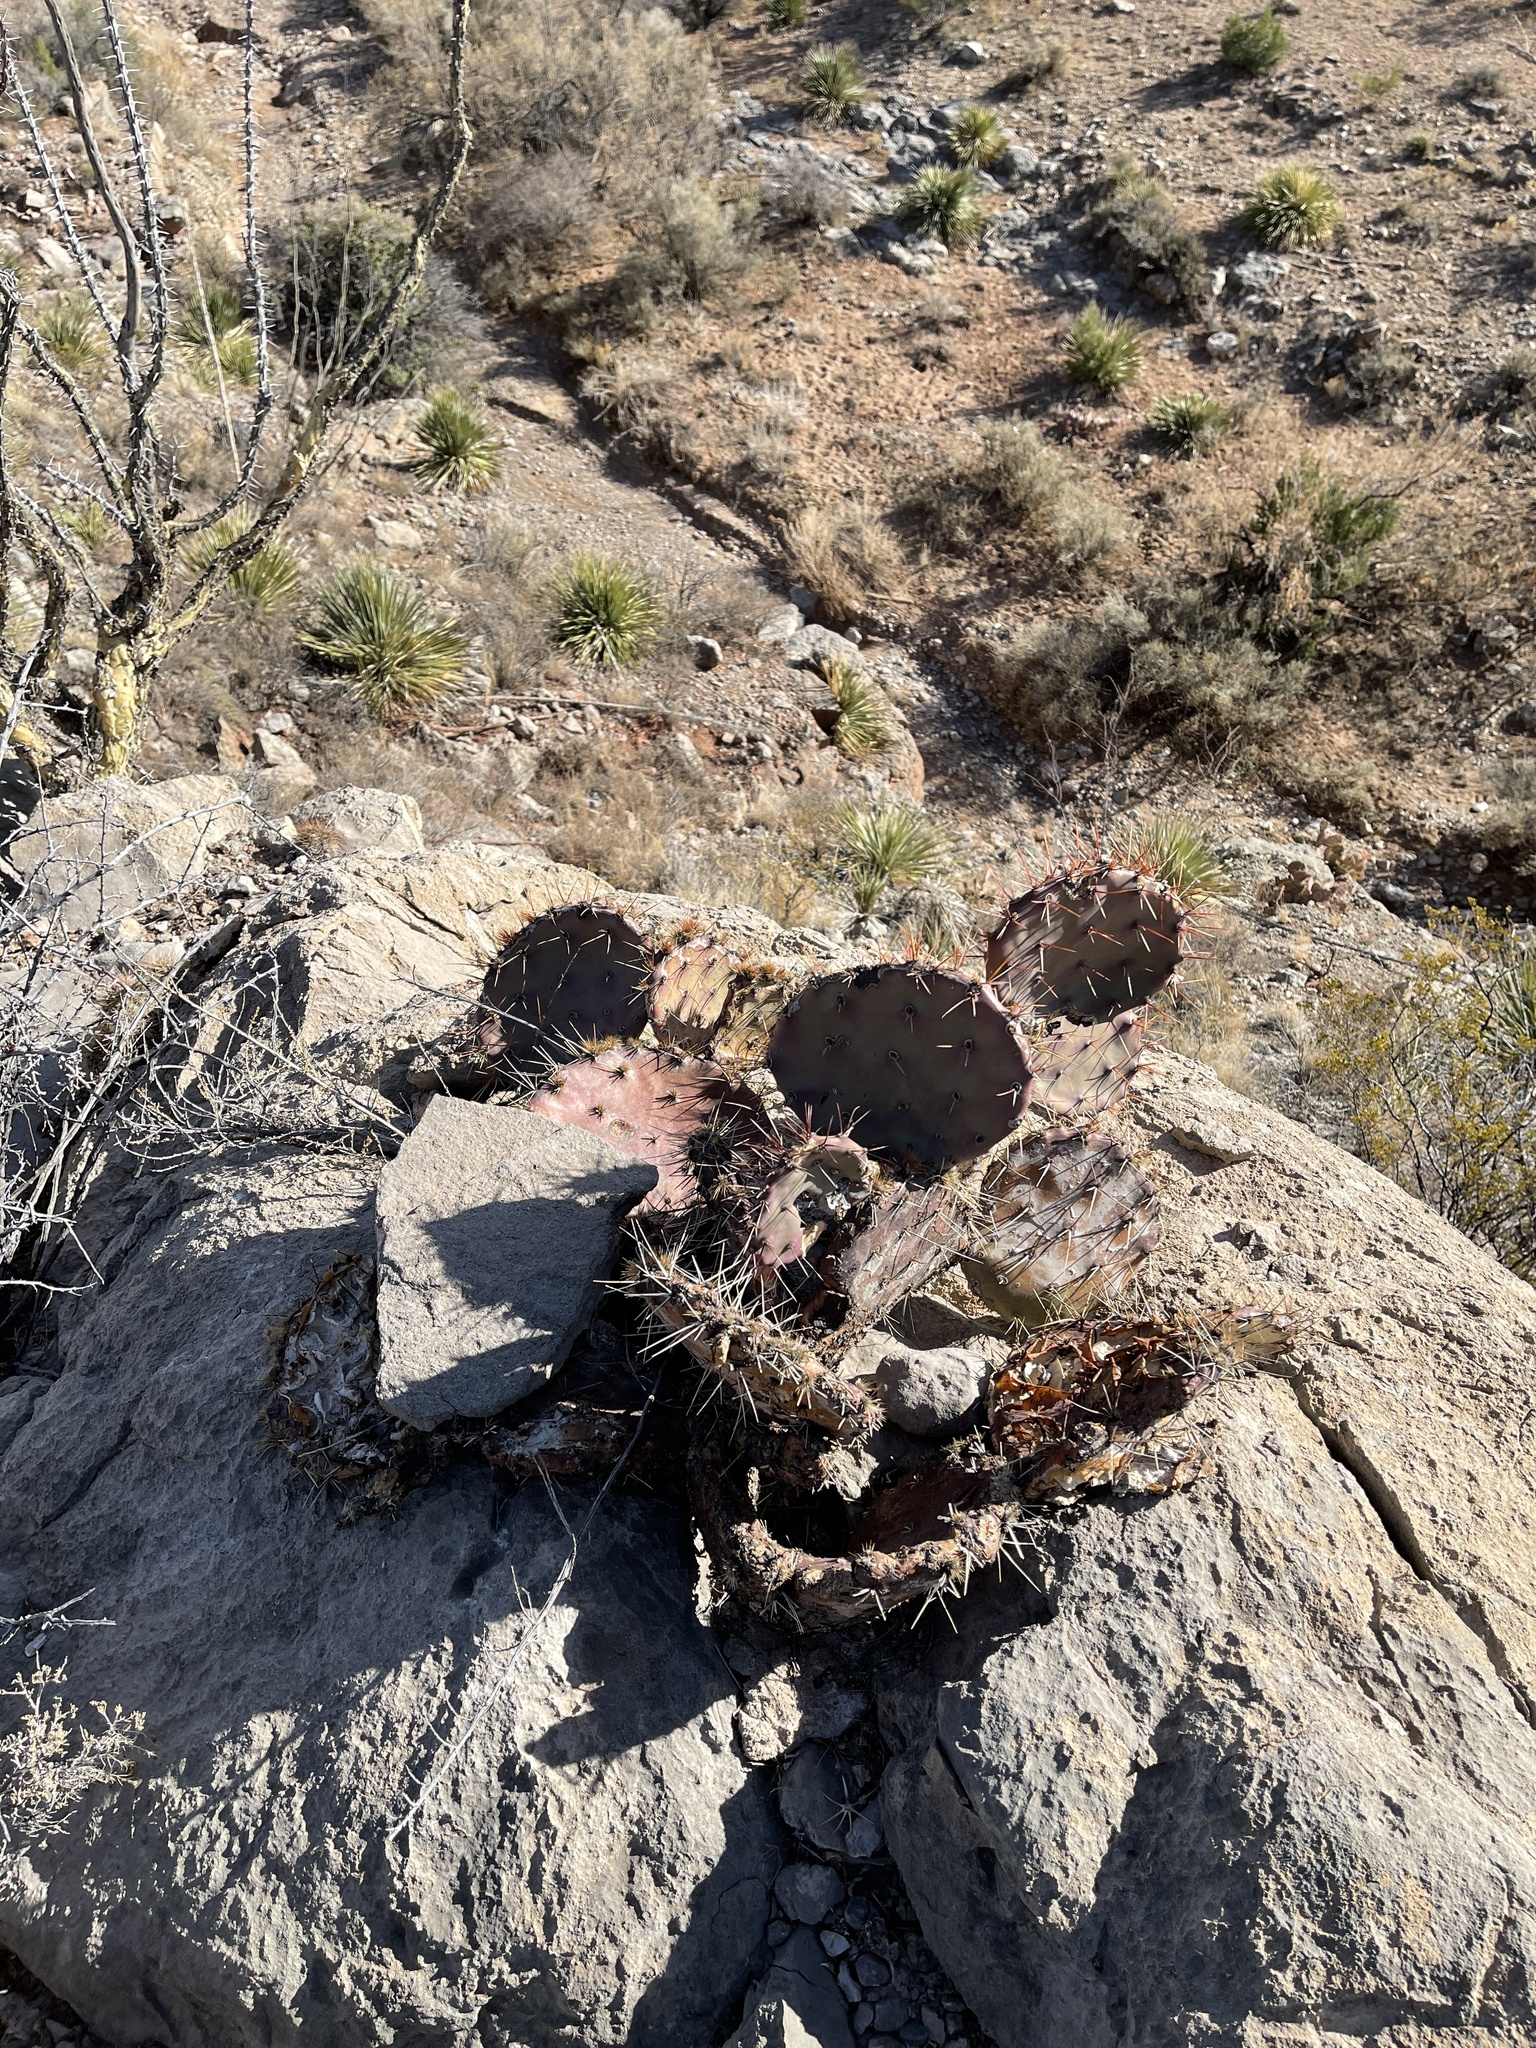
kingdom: Plantae
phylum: Tracheophyta
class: Magnoliopsida
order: Caryophyllales
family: Cactaceae
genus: Opuntia
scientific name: Opuntia macrocentra
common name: Purple prickly-pear
